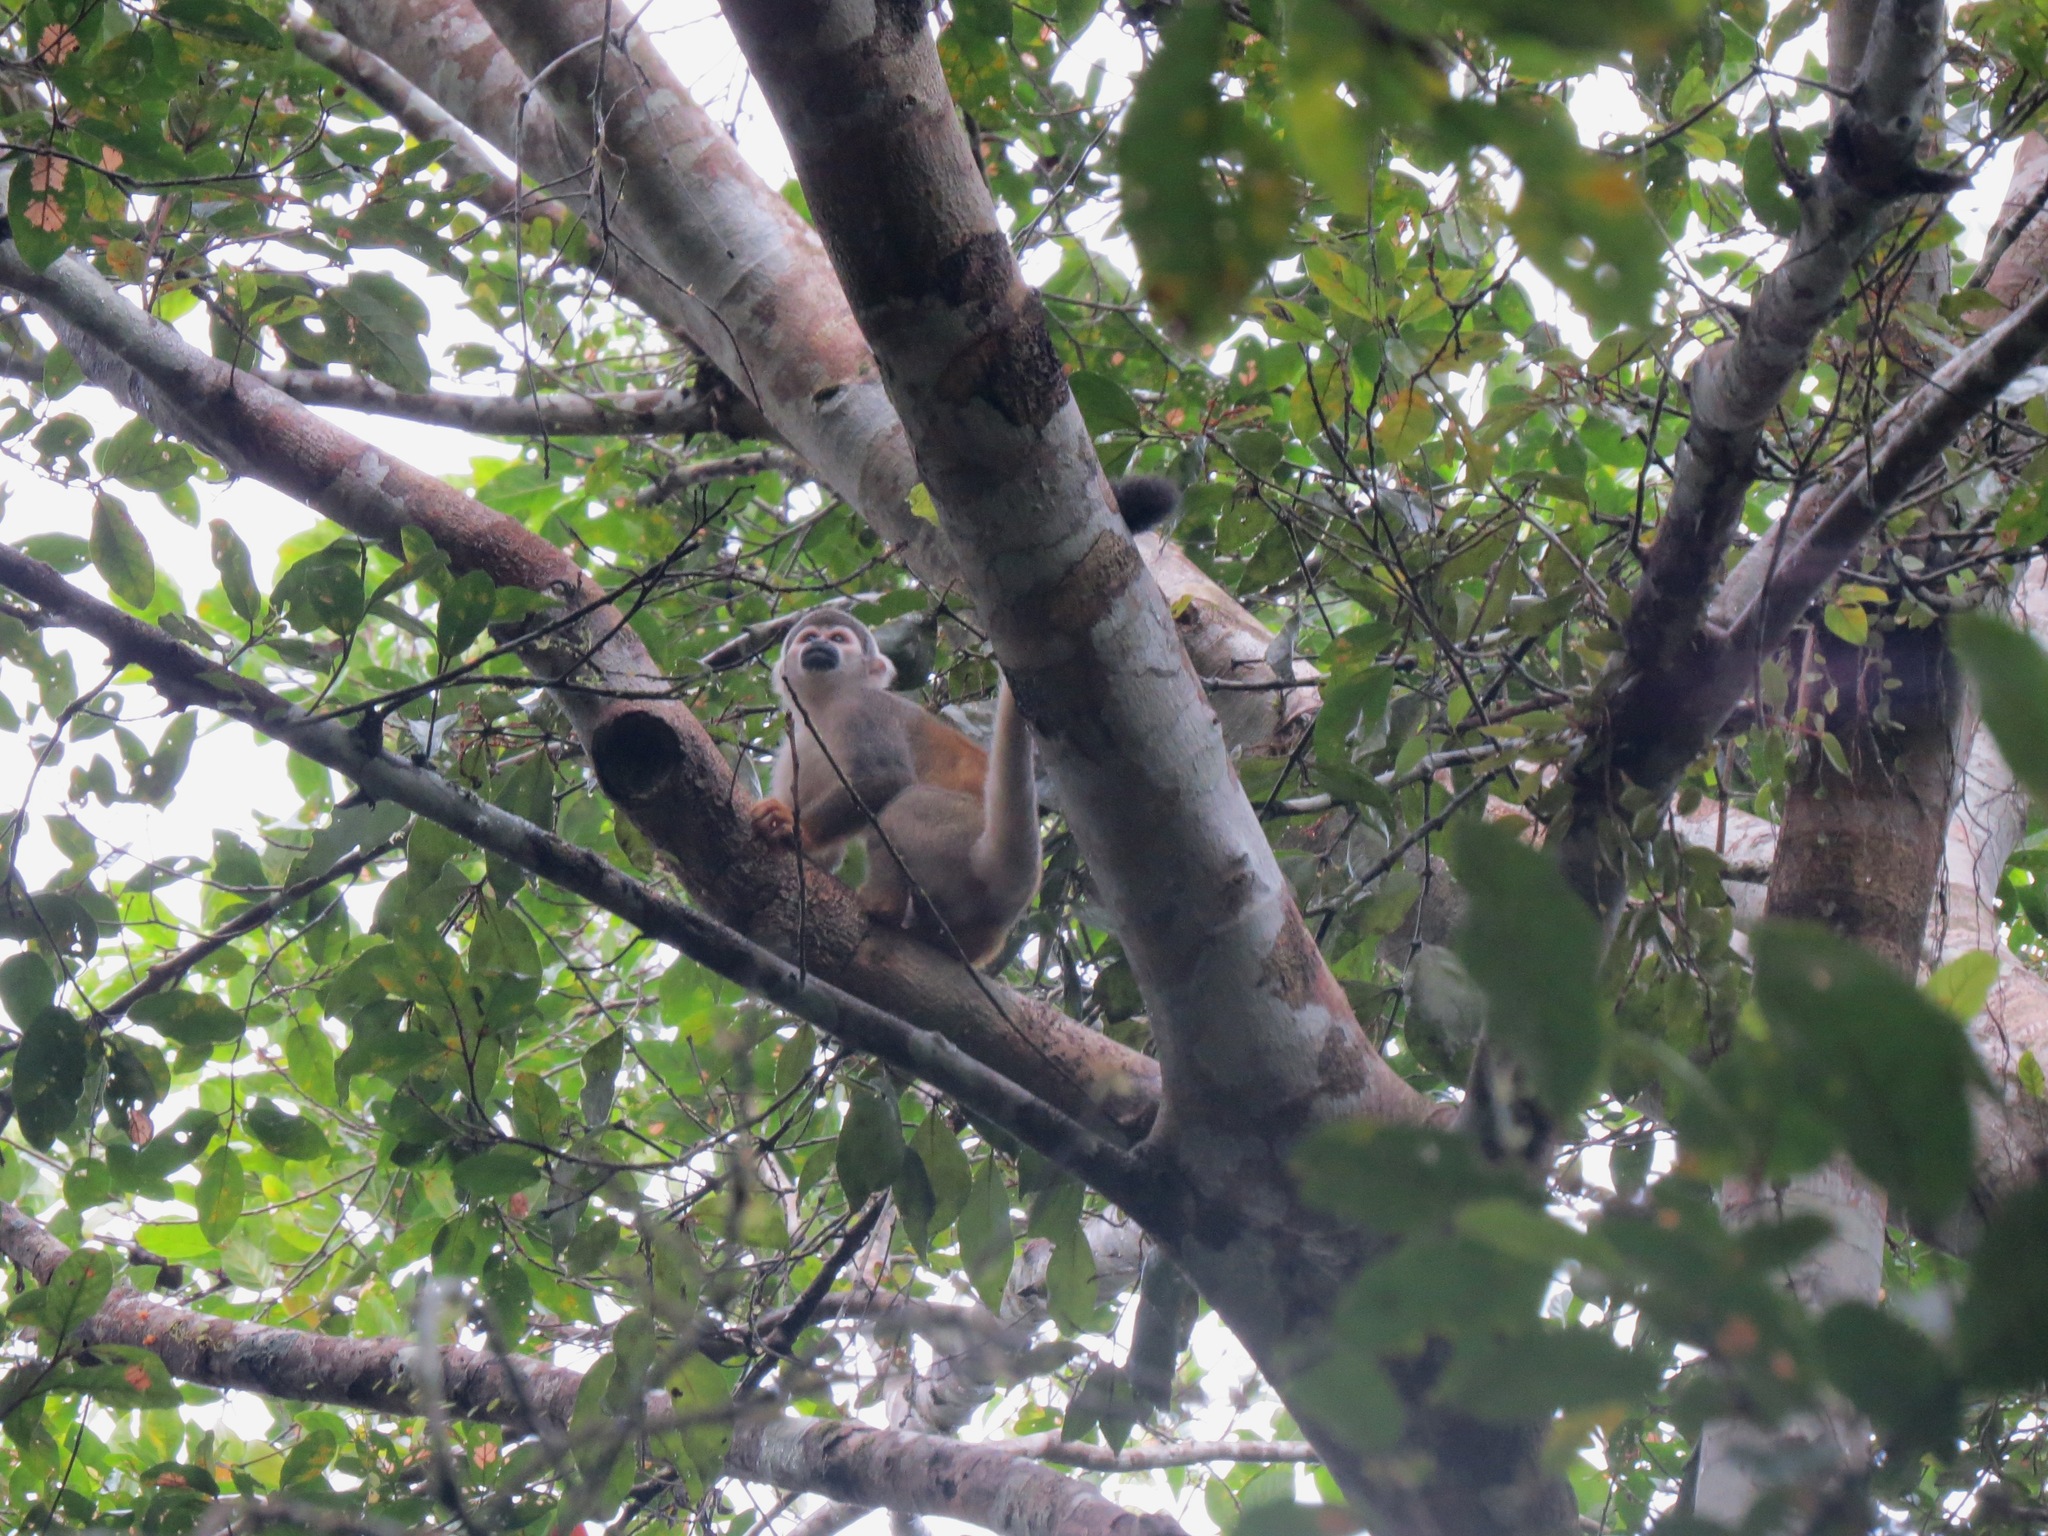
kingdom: Animalia
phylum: Chordata
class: Mammalia
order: Primates
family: Cebidae
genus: Saimiri
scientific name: Saimiri cassiquiarensis
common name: Humboldt’s squirrel monkey
